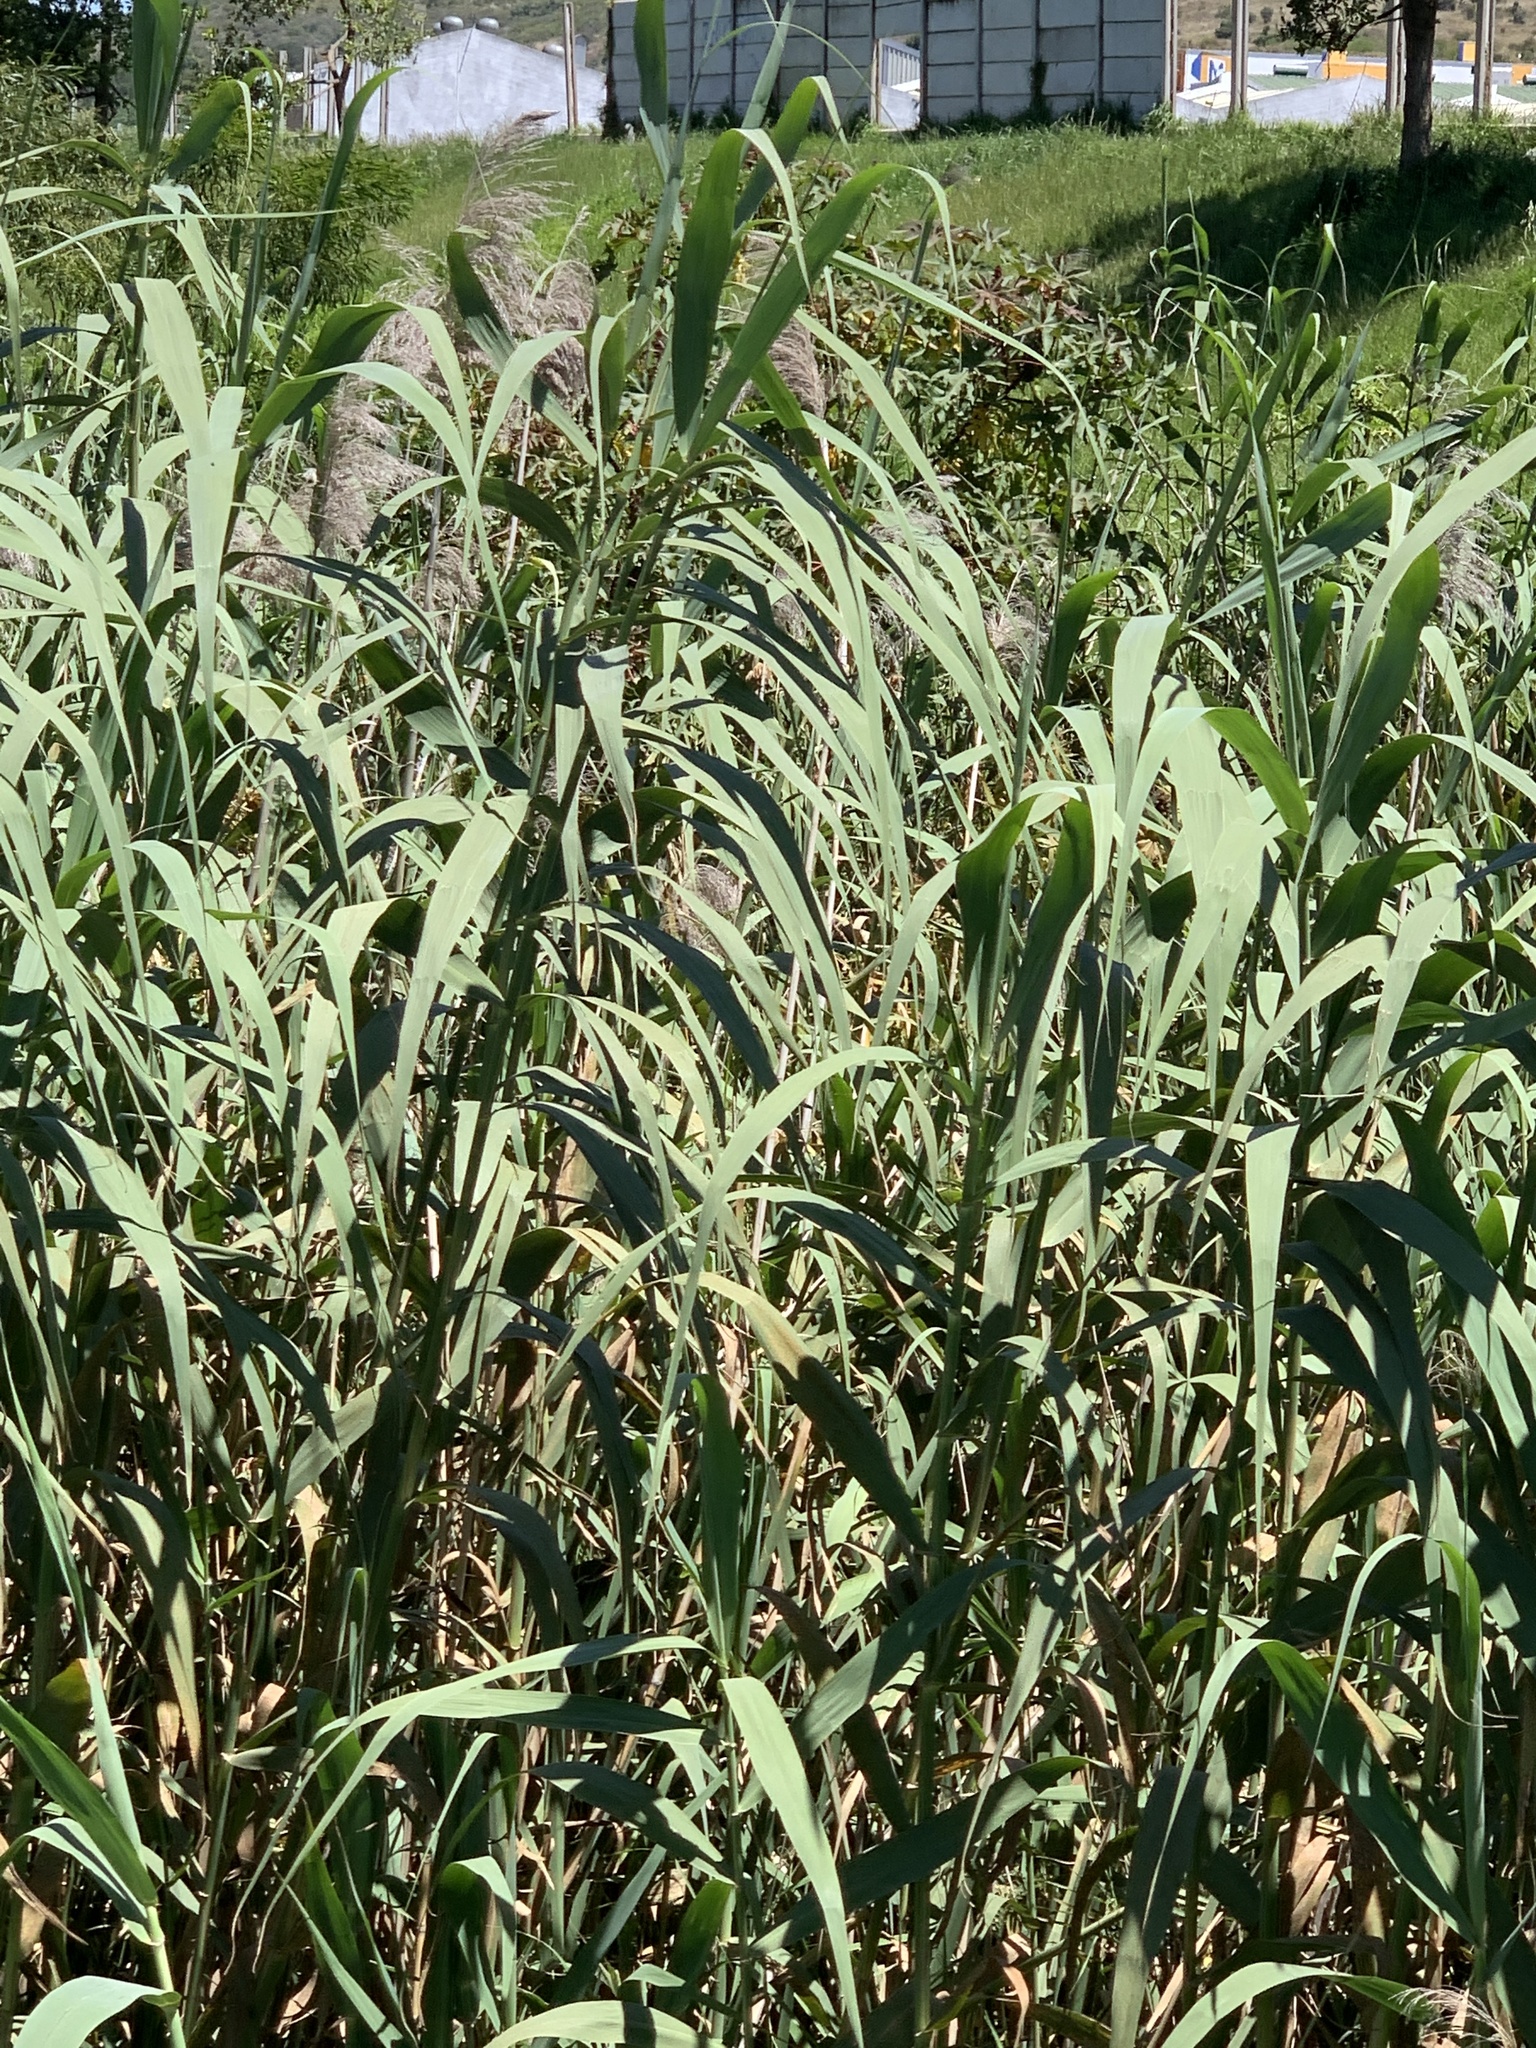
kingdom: Plantae
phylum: Tracheophyta
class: Liliopsida
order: Poales
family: Poaceae
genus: Arundo
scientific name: Arundo donax
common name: Giant reed
